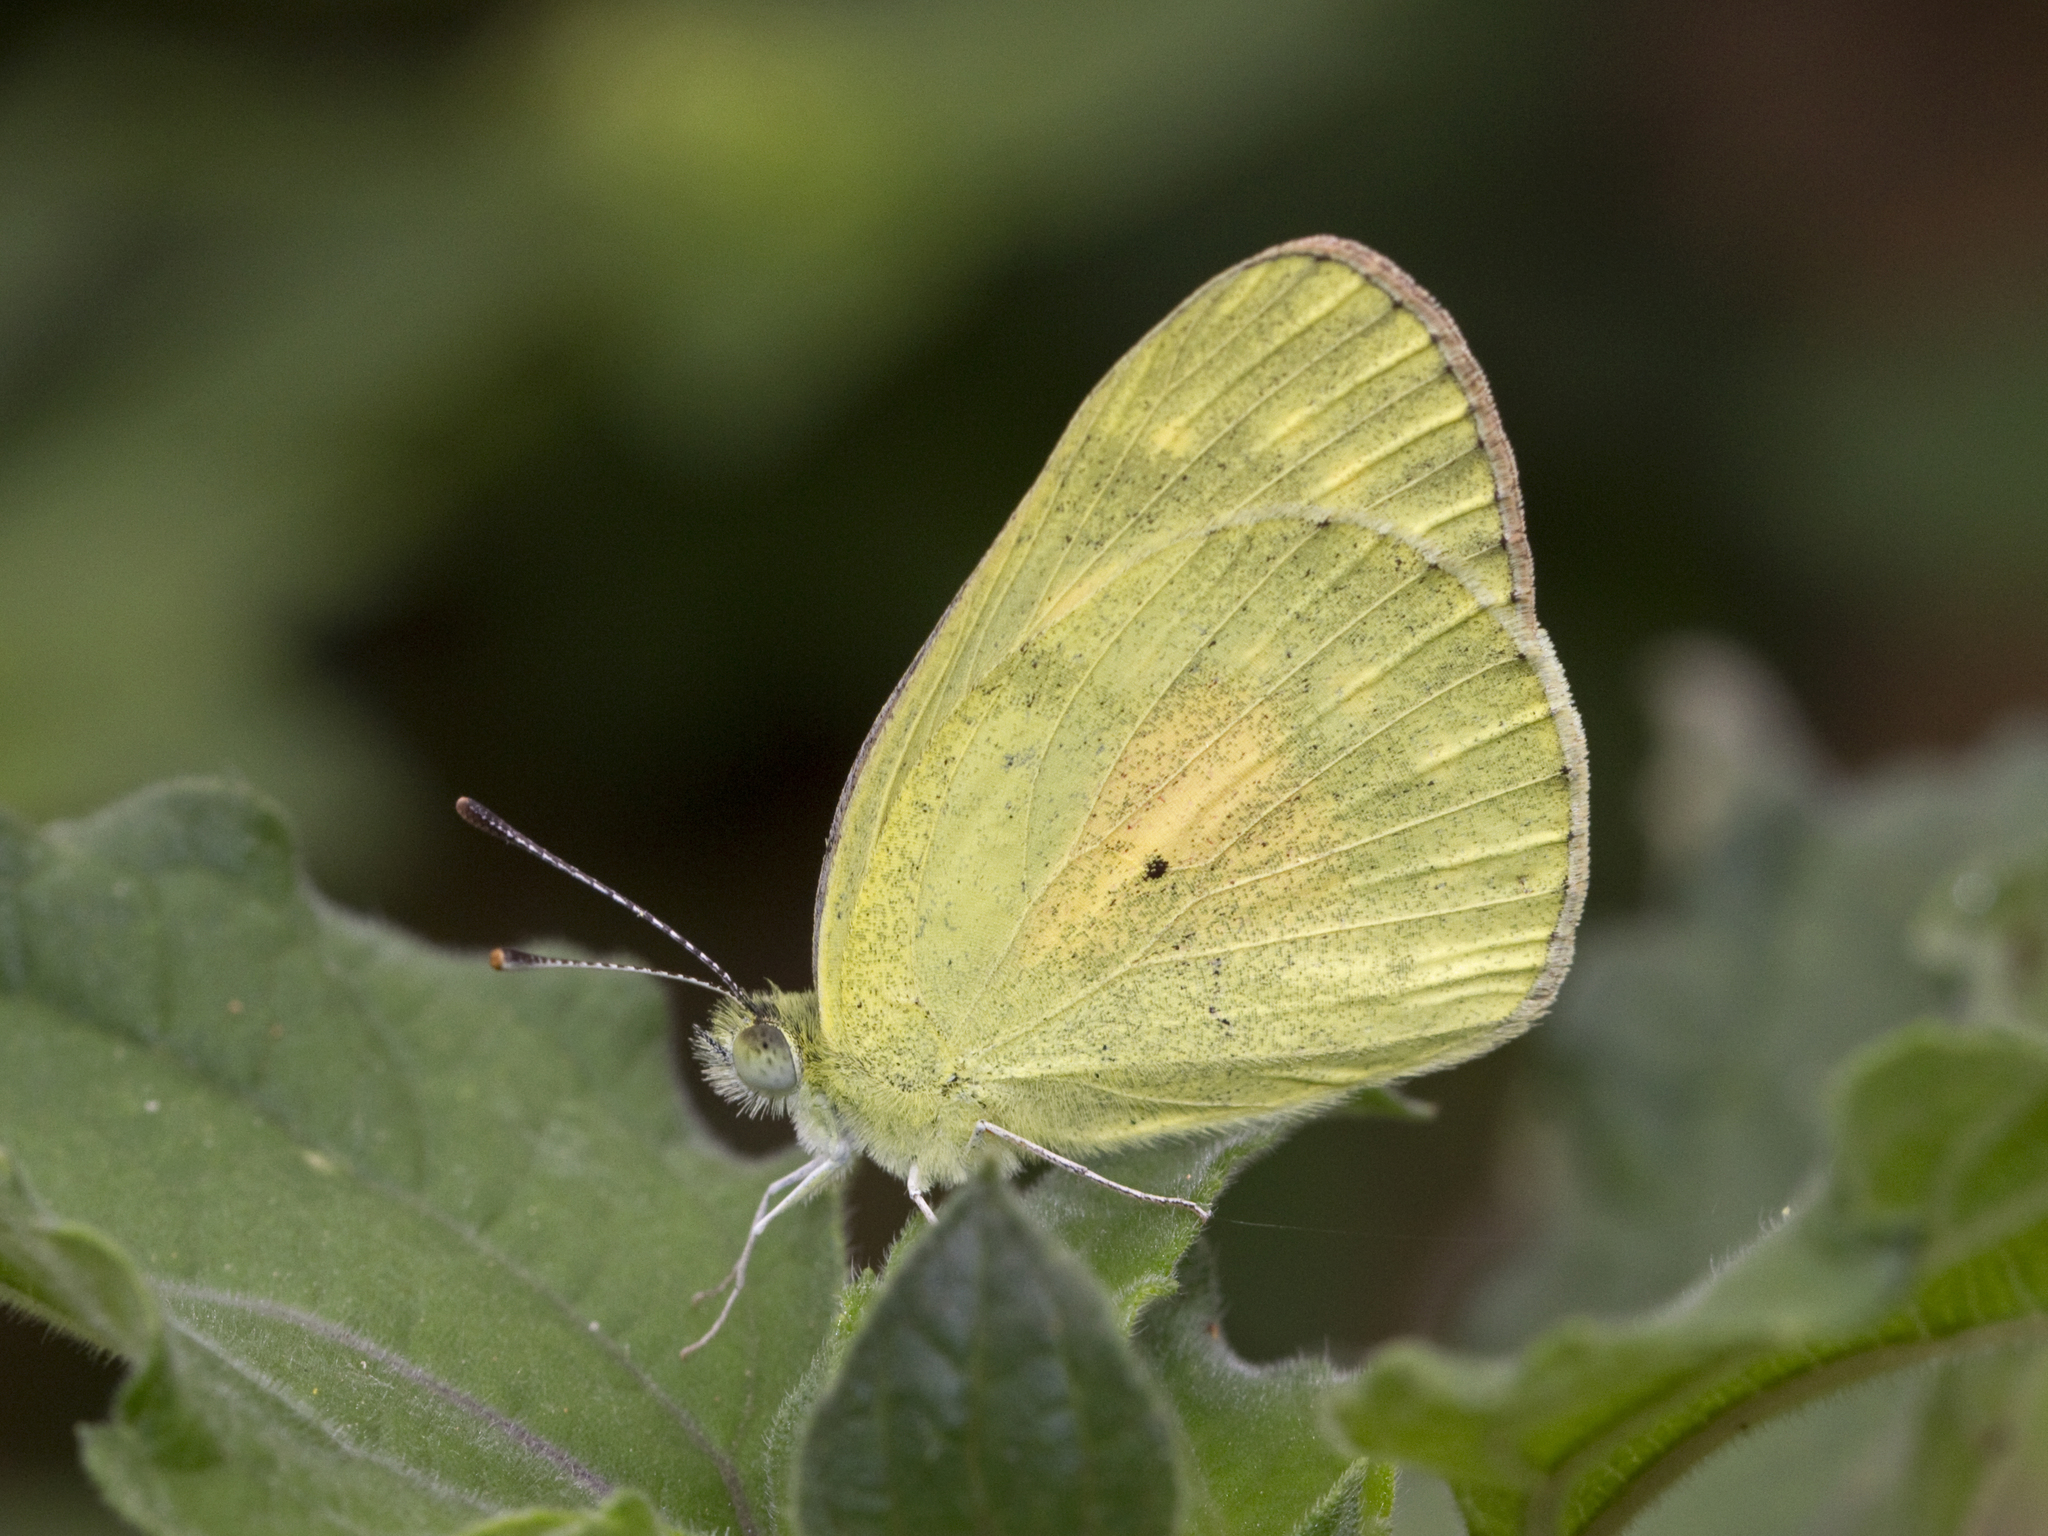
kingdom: Animalia
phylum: Arthropoda
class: Insecta
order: Lepidoptera
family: Pieridae
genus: Colotis
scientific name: Colotis amata
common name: Small salmon arab
